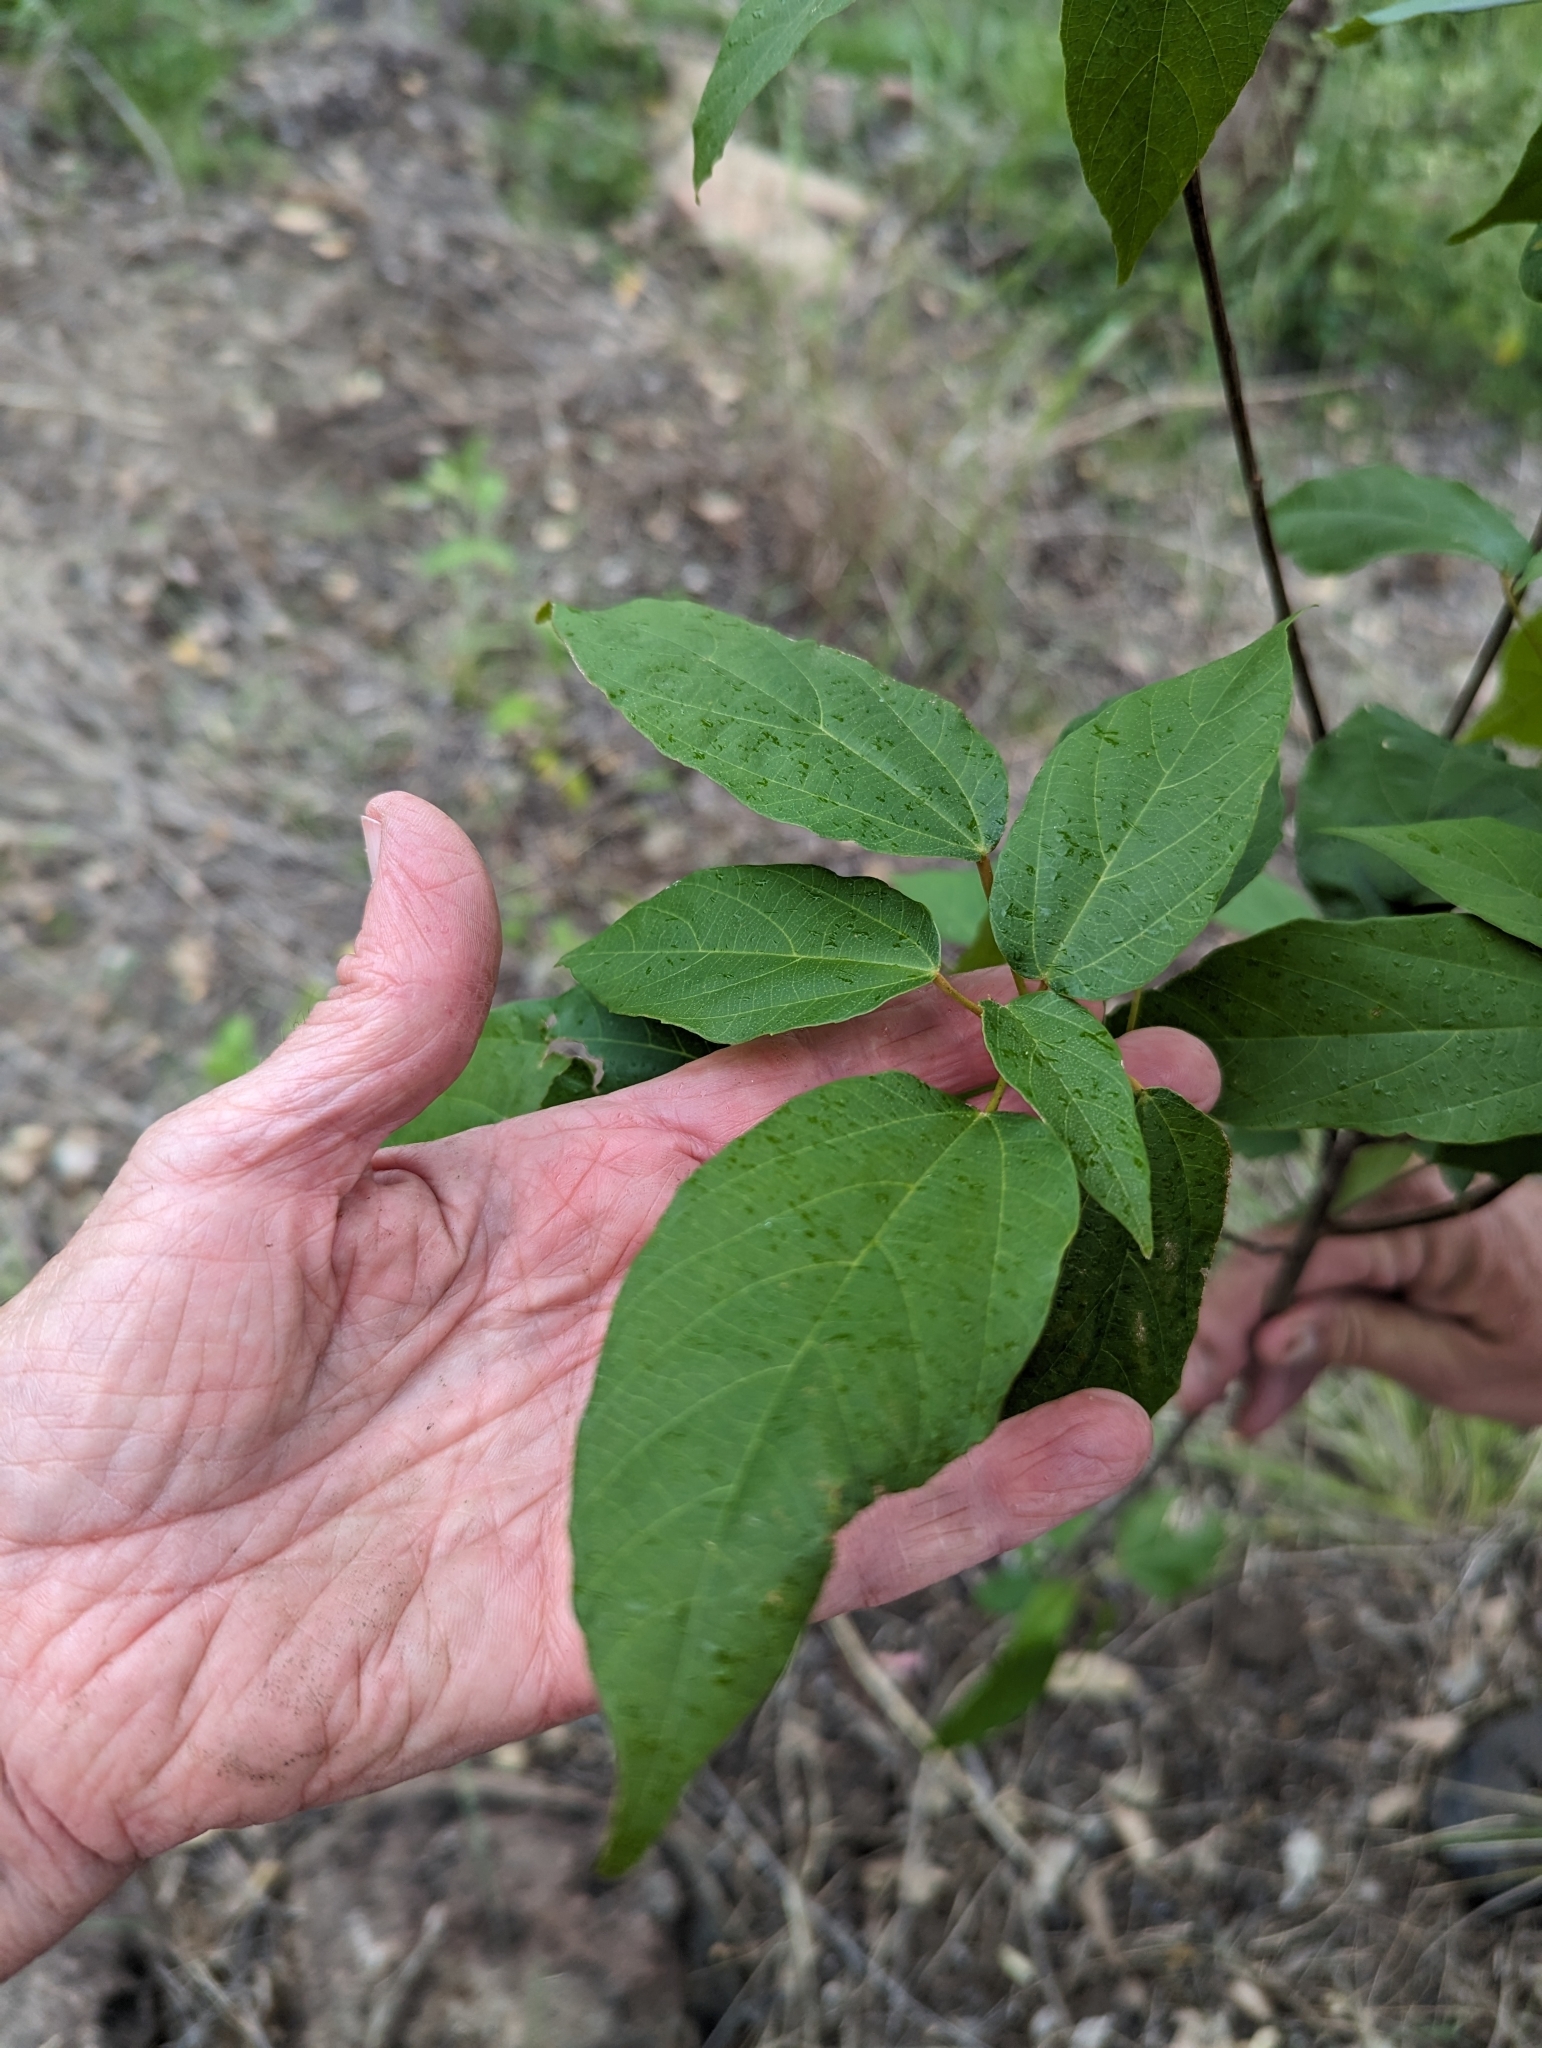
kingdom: Plantae
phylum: Tracheophyta
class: Magnoliopsida
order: Malpighiales
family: Euphorbiaceae
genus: Mallotus
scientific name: Mallotus philippensis
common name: Kamala tree
